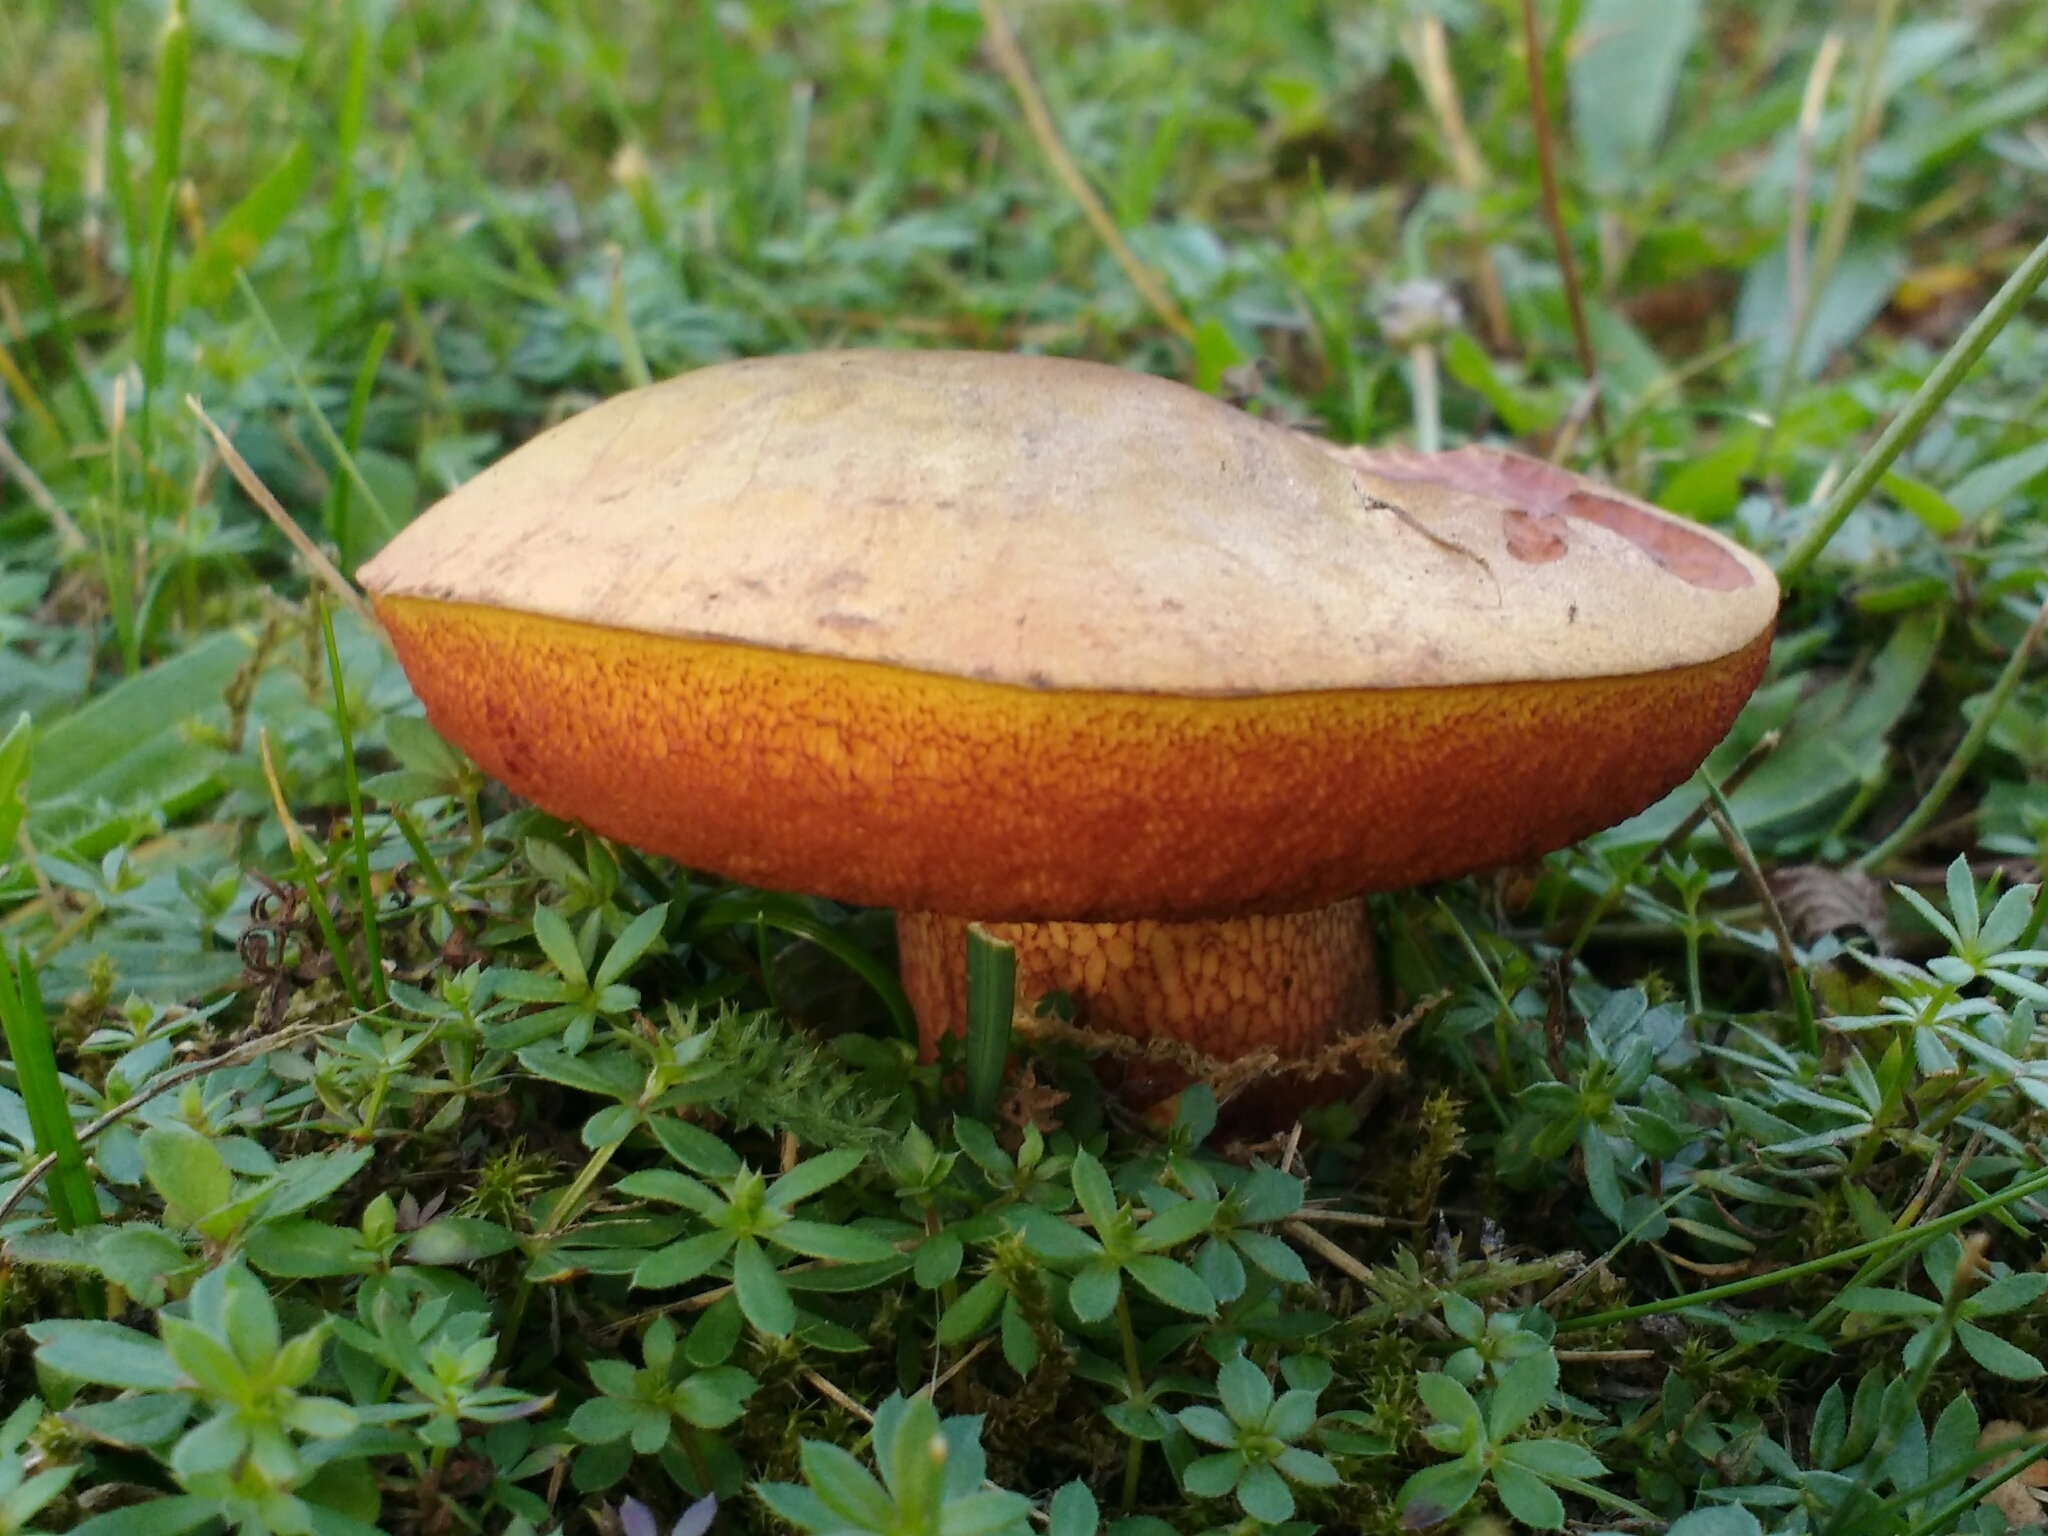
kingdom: Fungi
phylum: Basidiomycota
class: Agaricomycetes
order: Boletales
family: Boletaceae
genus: Suillellus
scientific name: Suillellus luridus
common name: Lurid bolete
